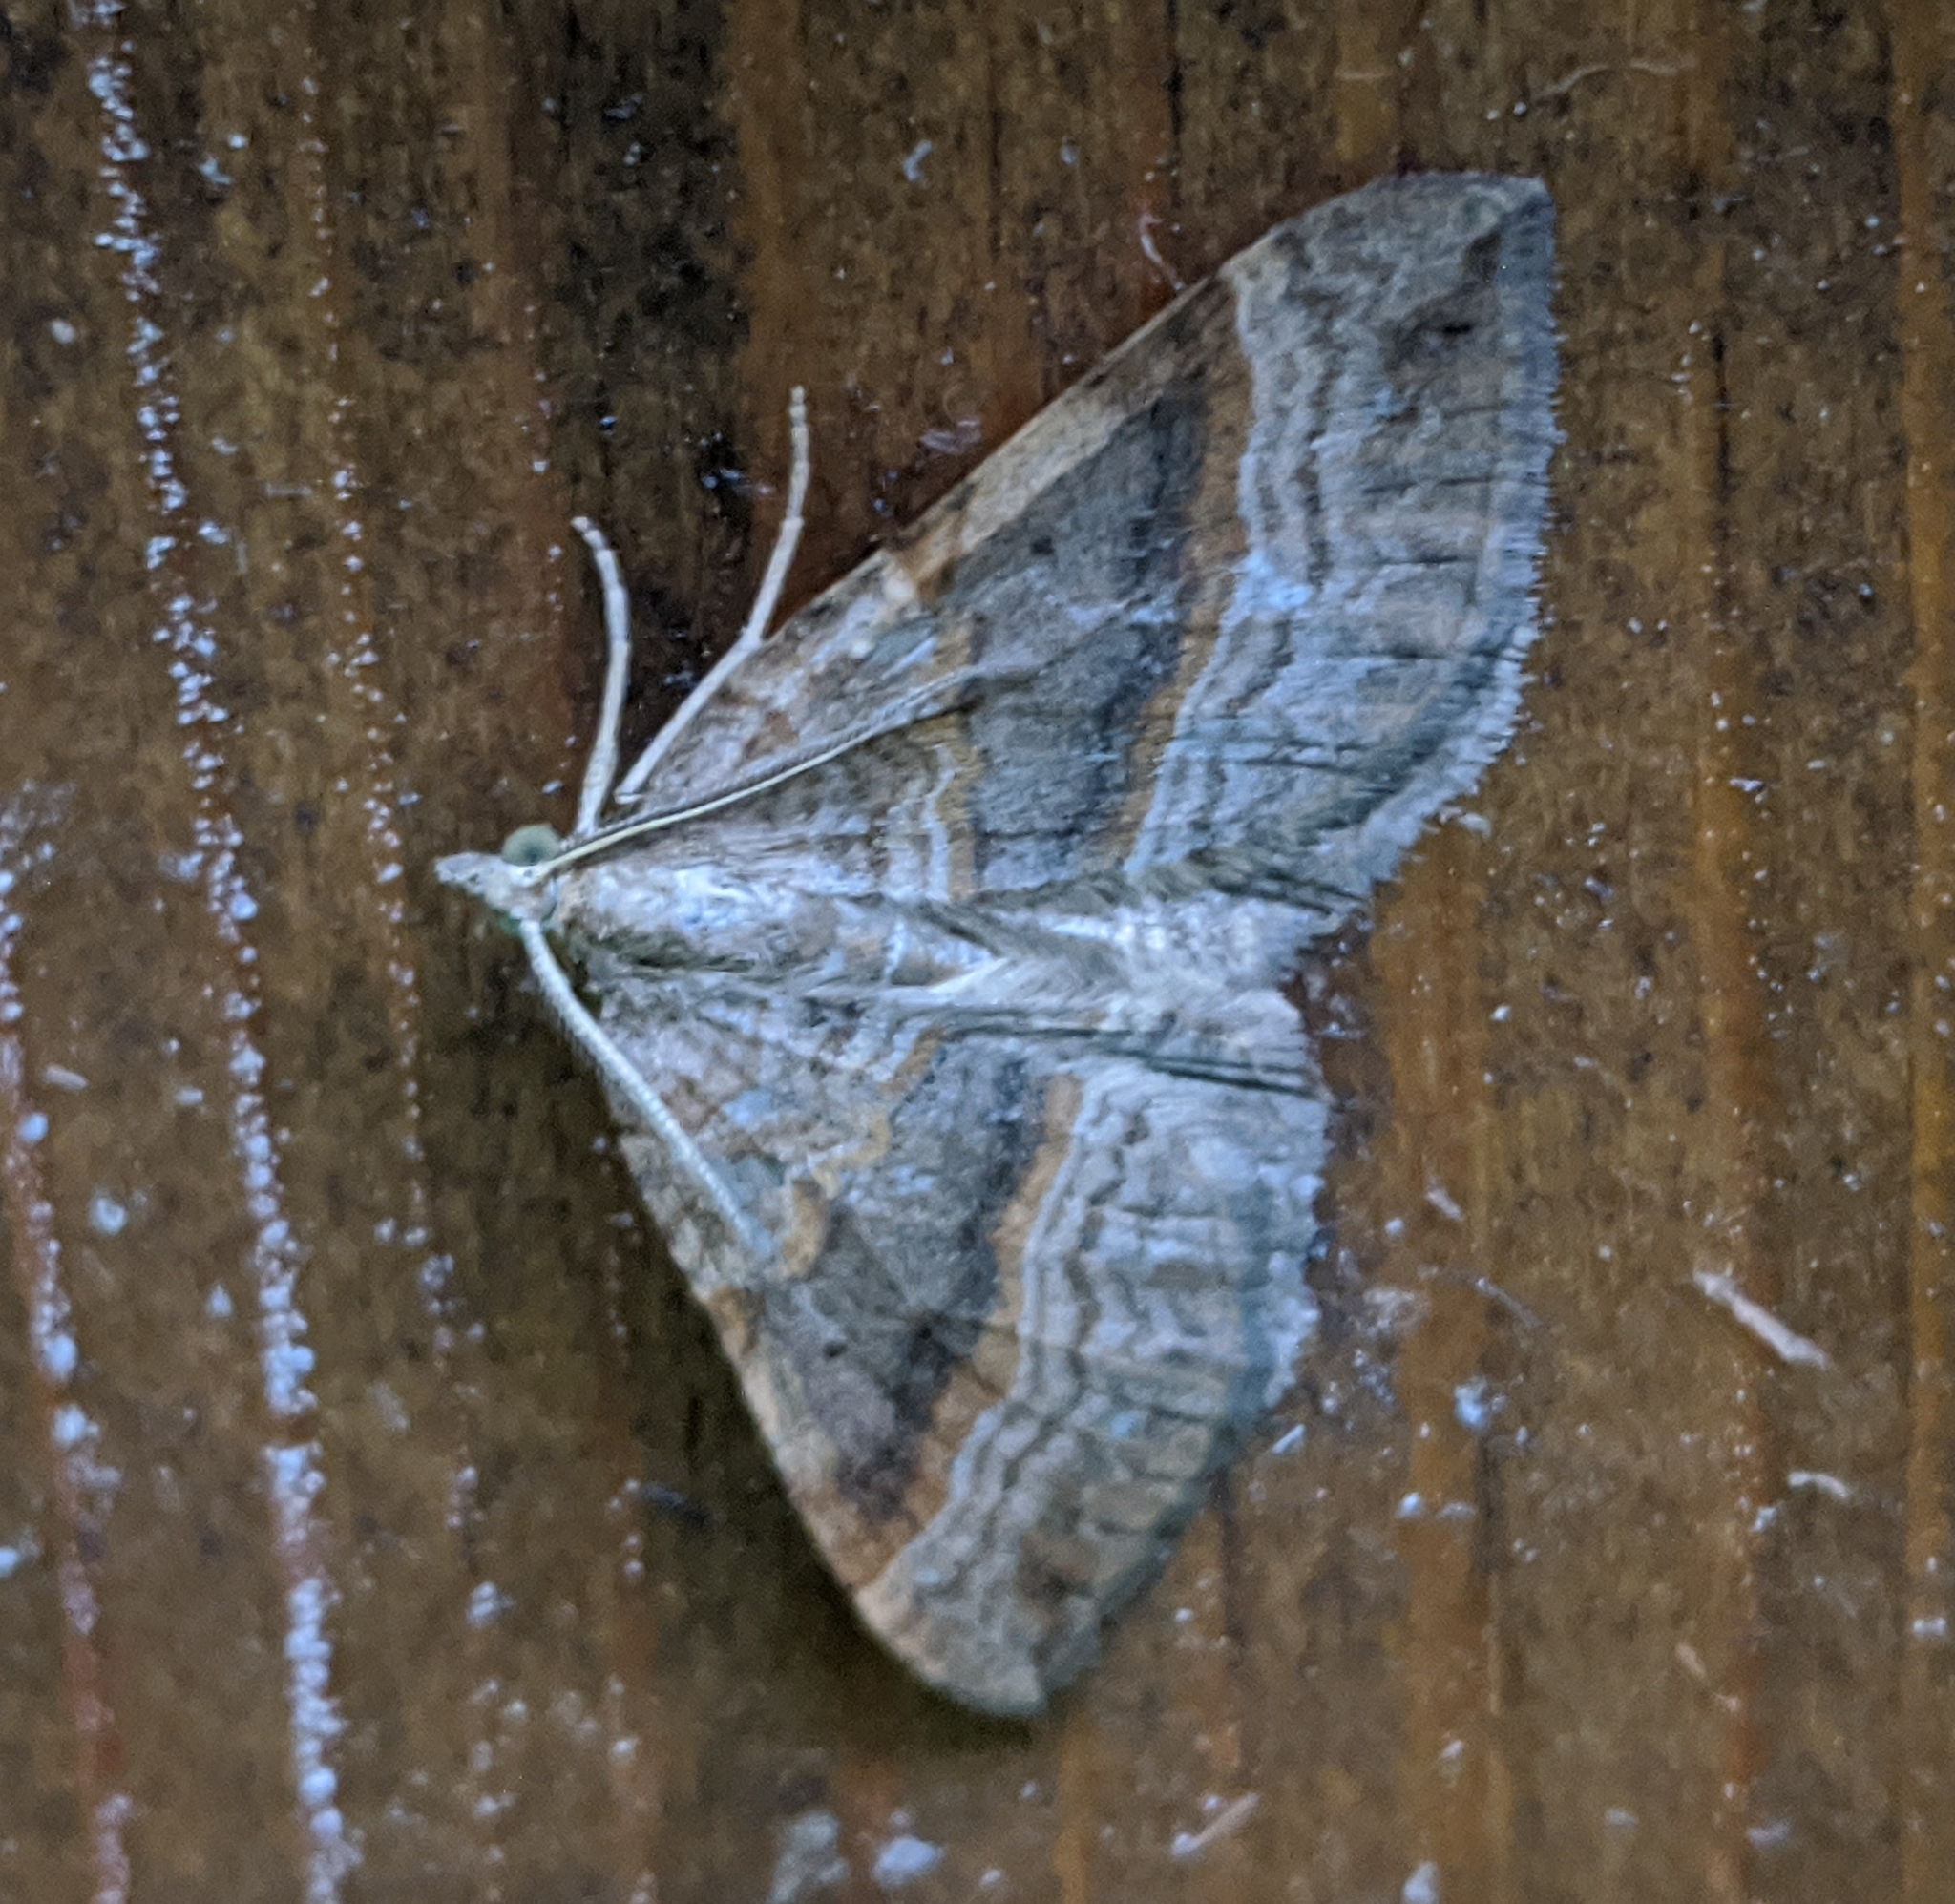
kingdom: Animalia
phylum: Arthropoda
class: Insecta
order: Lepidoptera
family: Geometridae
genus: Scotopteryx
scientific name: Scotopteryx chenopodiata
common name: Shaded broad-bar
